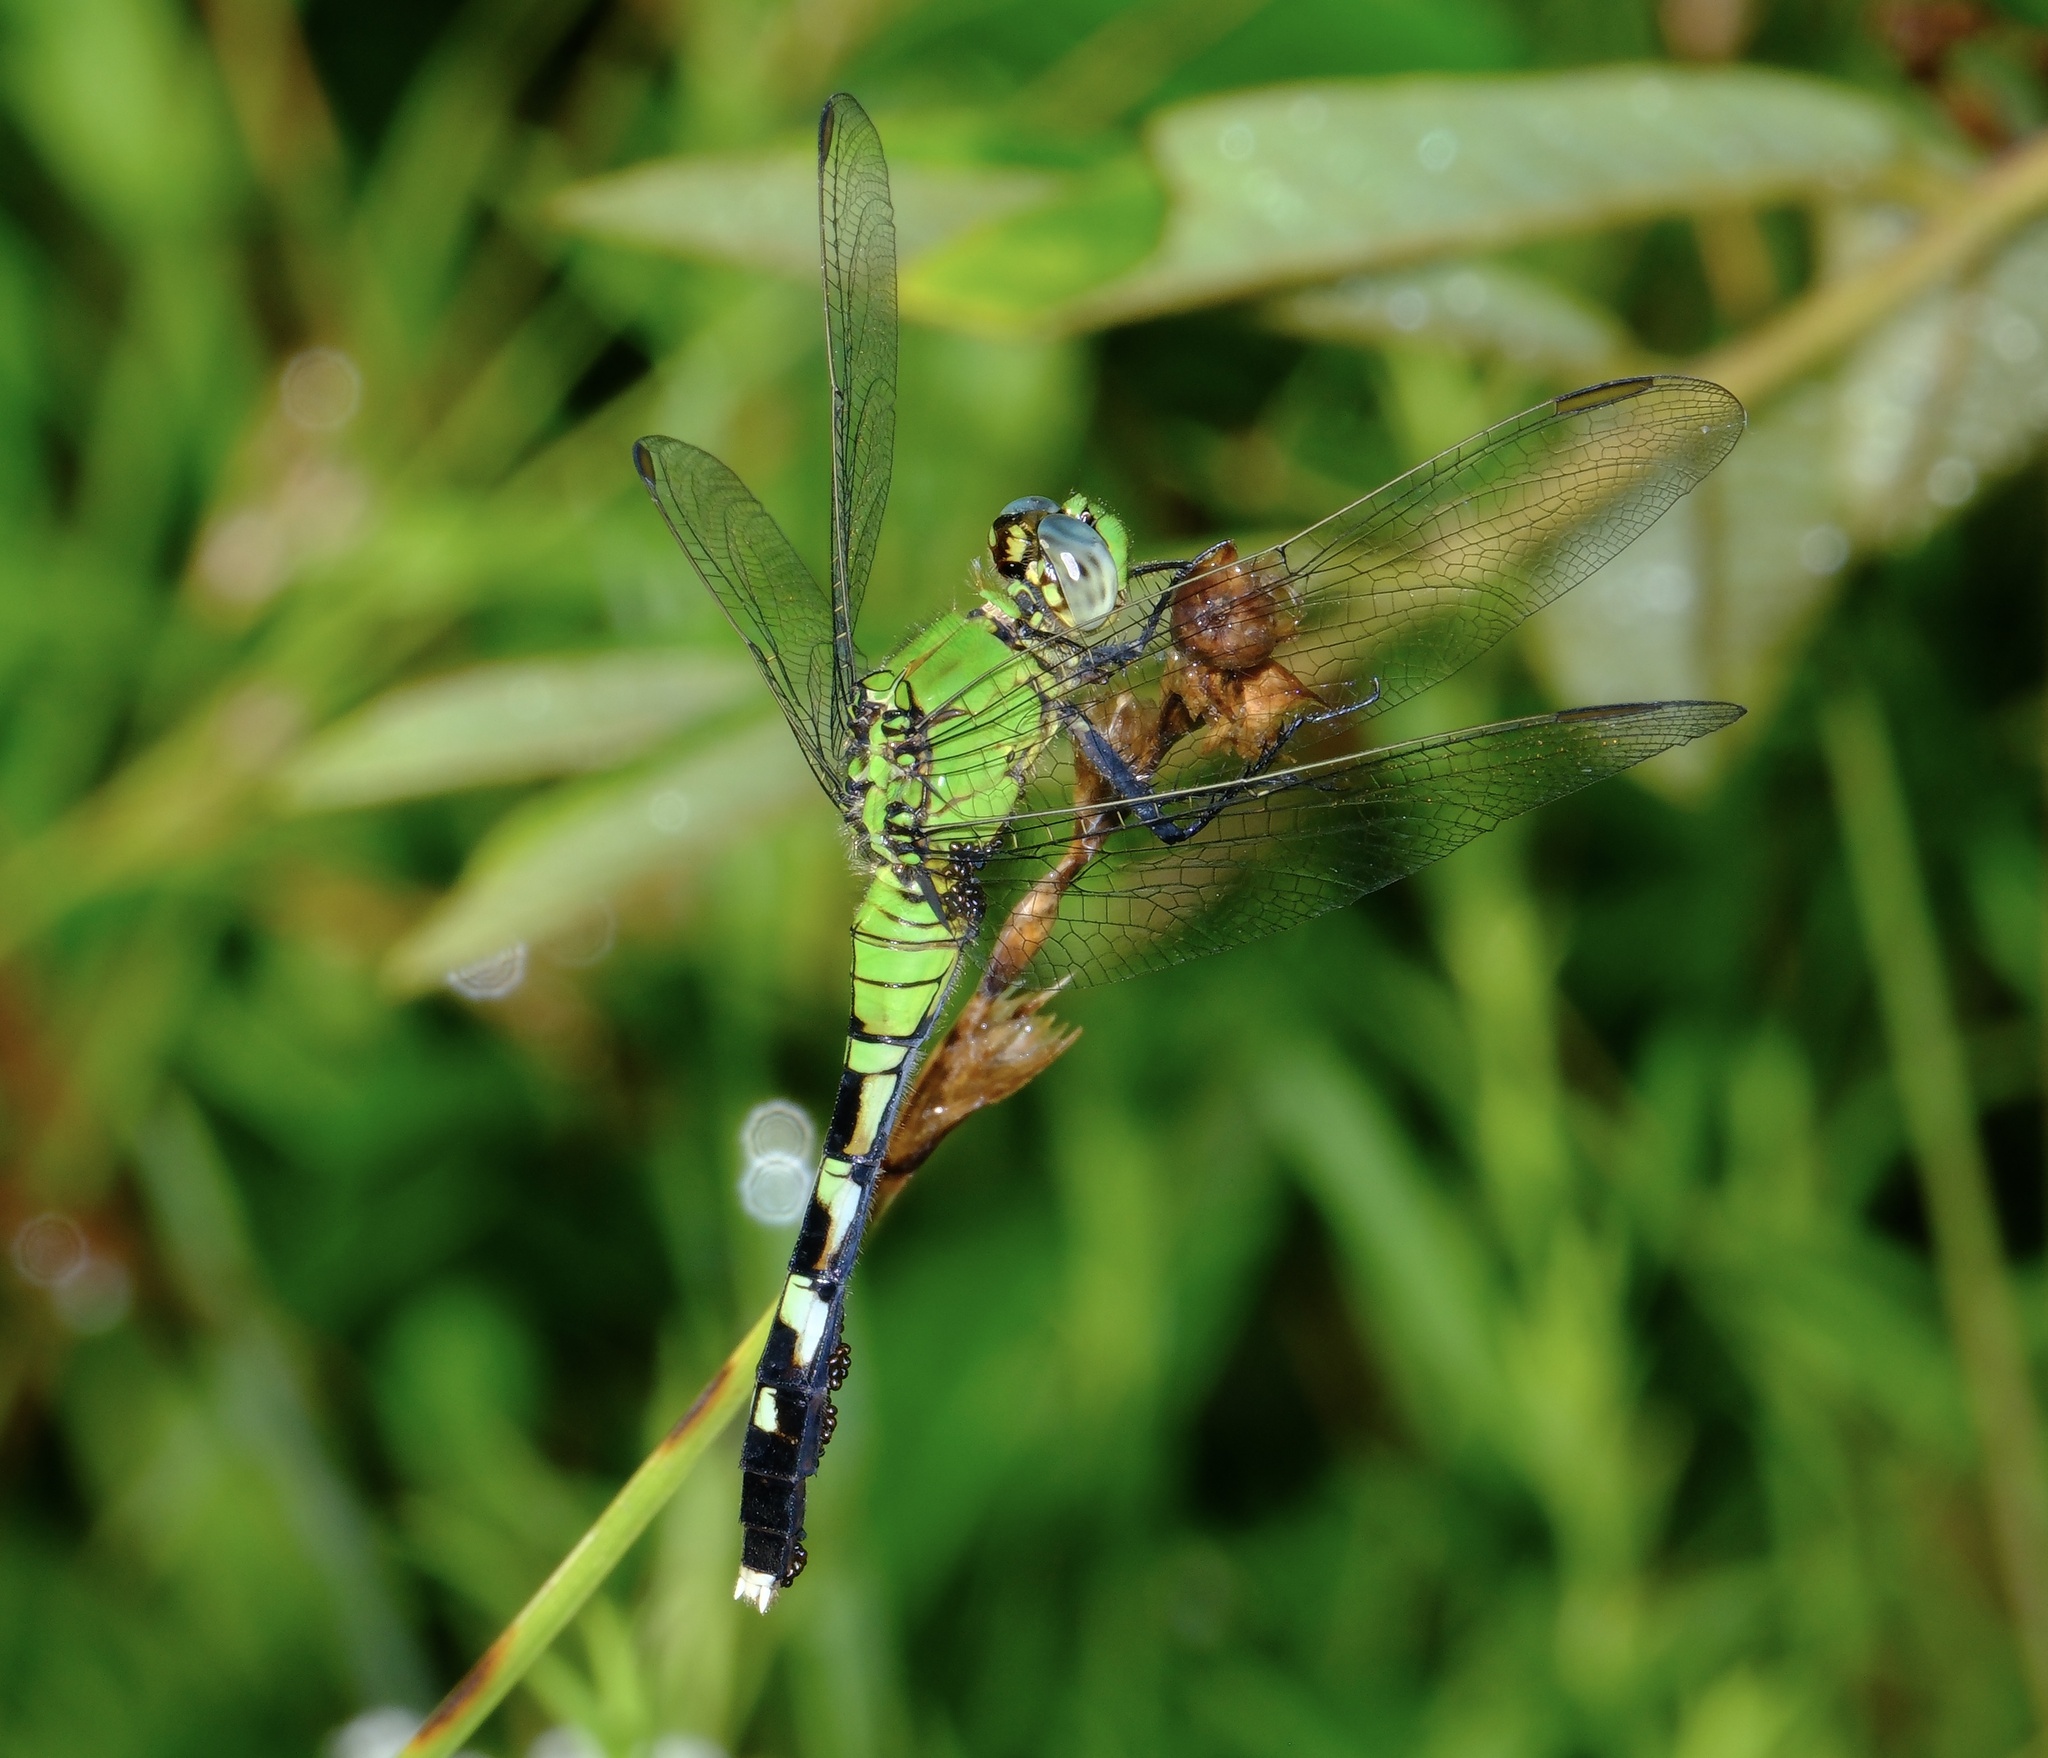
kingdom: Animalia
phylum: Arthropoda
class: Insecta
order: Odonata
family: Libellulidae
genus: Erythemis
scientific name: Erythemis simplicicollis
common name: Eastern pondhawk
